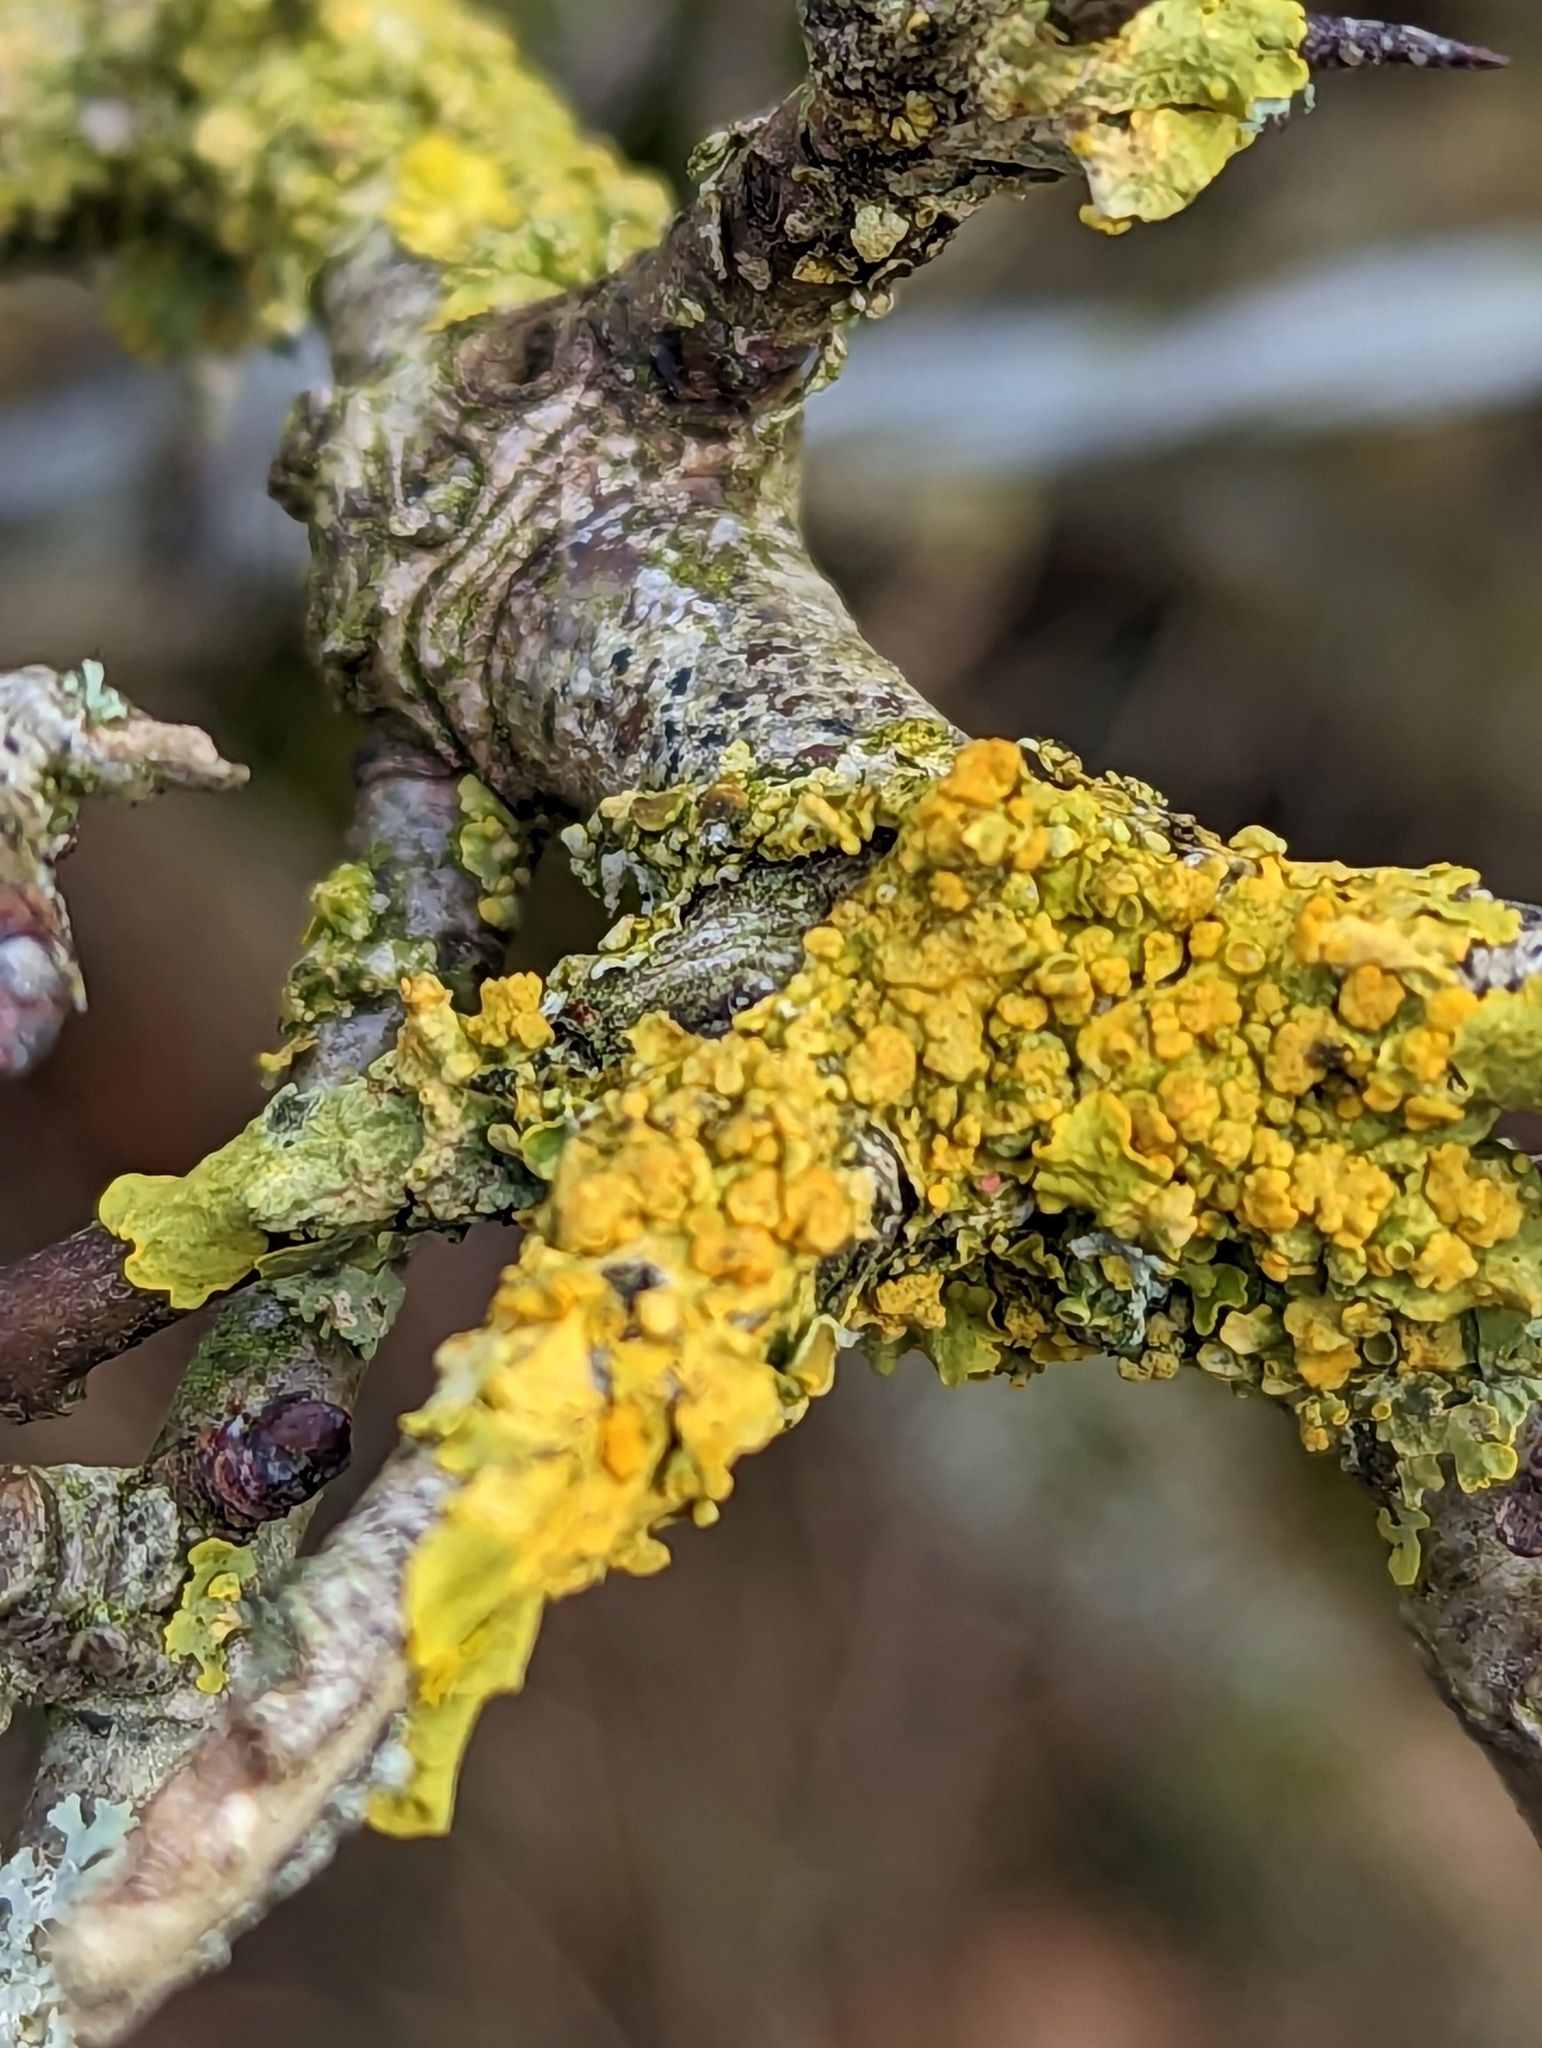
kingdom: Fungi
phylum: Ascomycota
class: Lecanoromycetes
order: Teloschistales
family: Teloschistaceae
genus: Xanthoria
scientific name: Xanthoria parietina
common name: Common orange lichen
